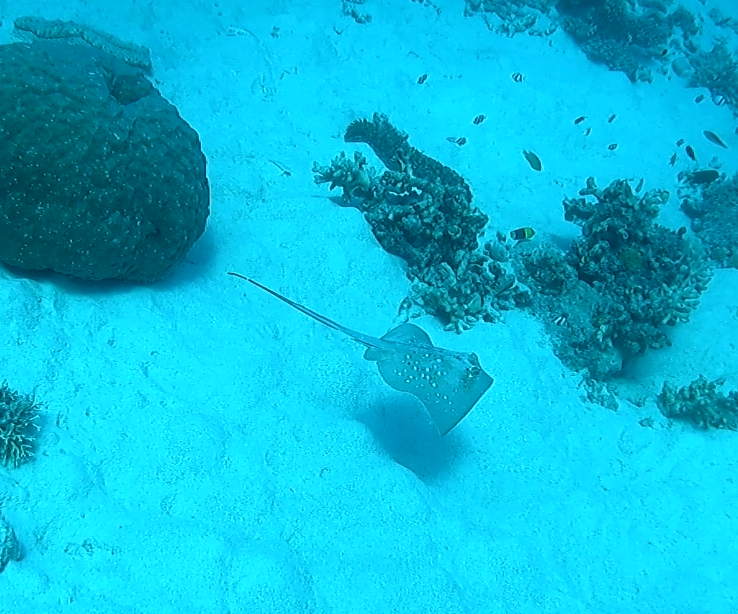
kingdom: Animalia
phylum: Chordata
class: Elasmobranchii
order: Myliobatiformes
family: Dasyatidae
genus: Neotrygon
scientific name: Neotrygon kuhlii
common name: Bluespotted stingray
